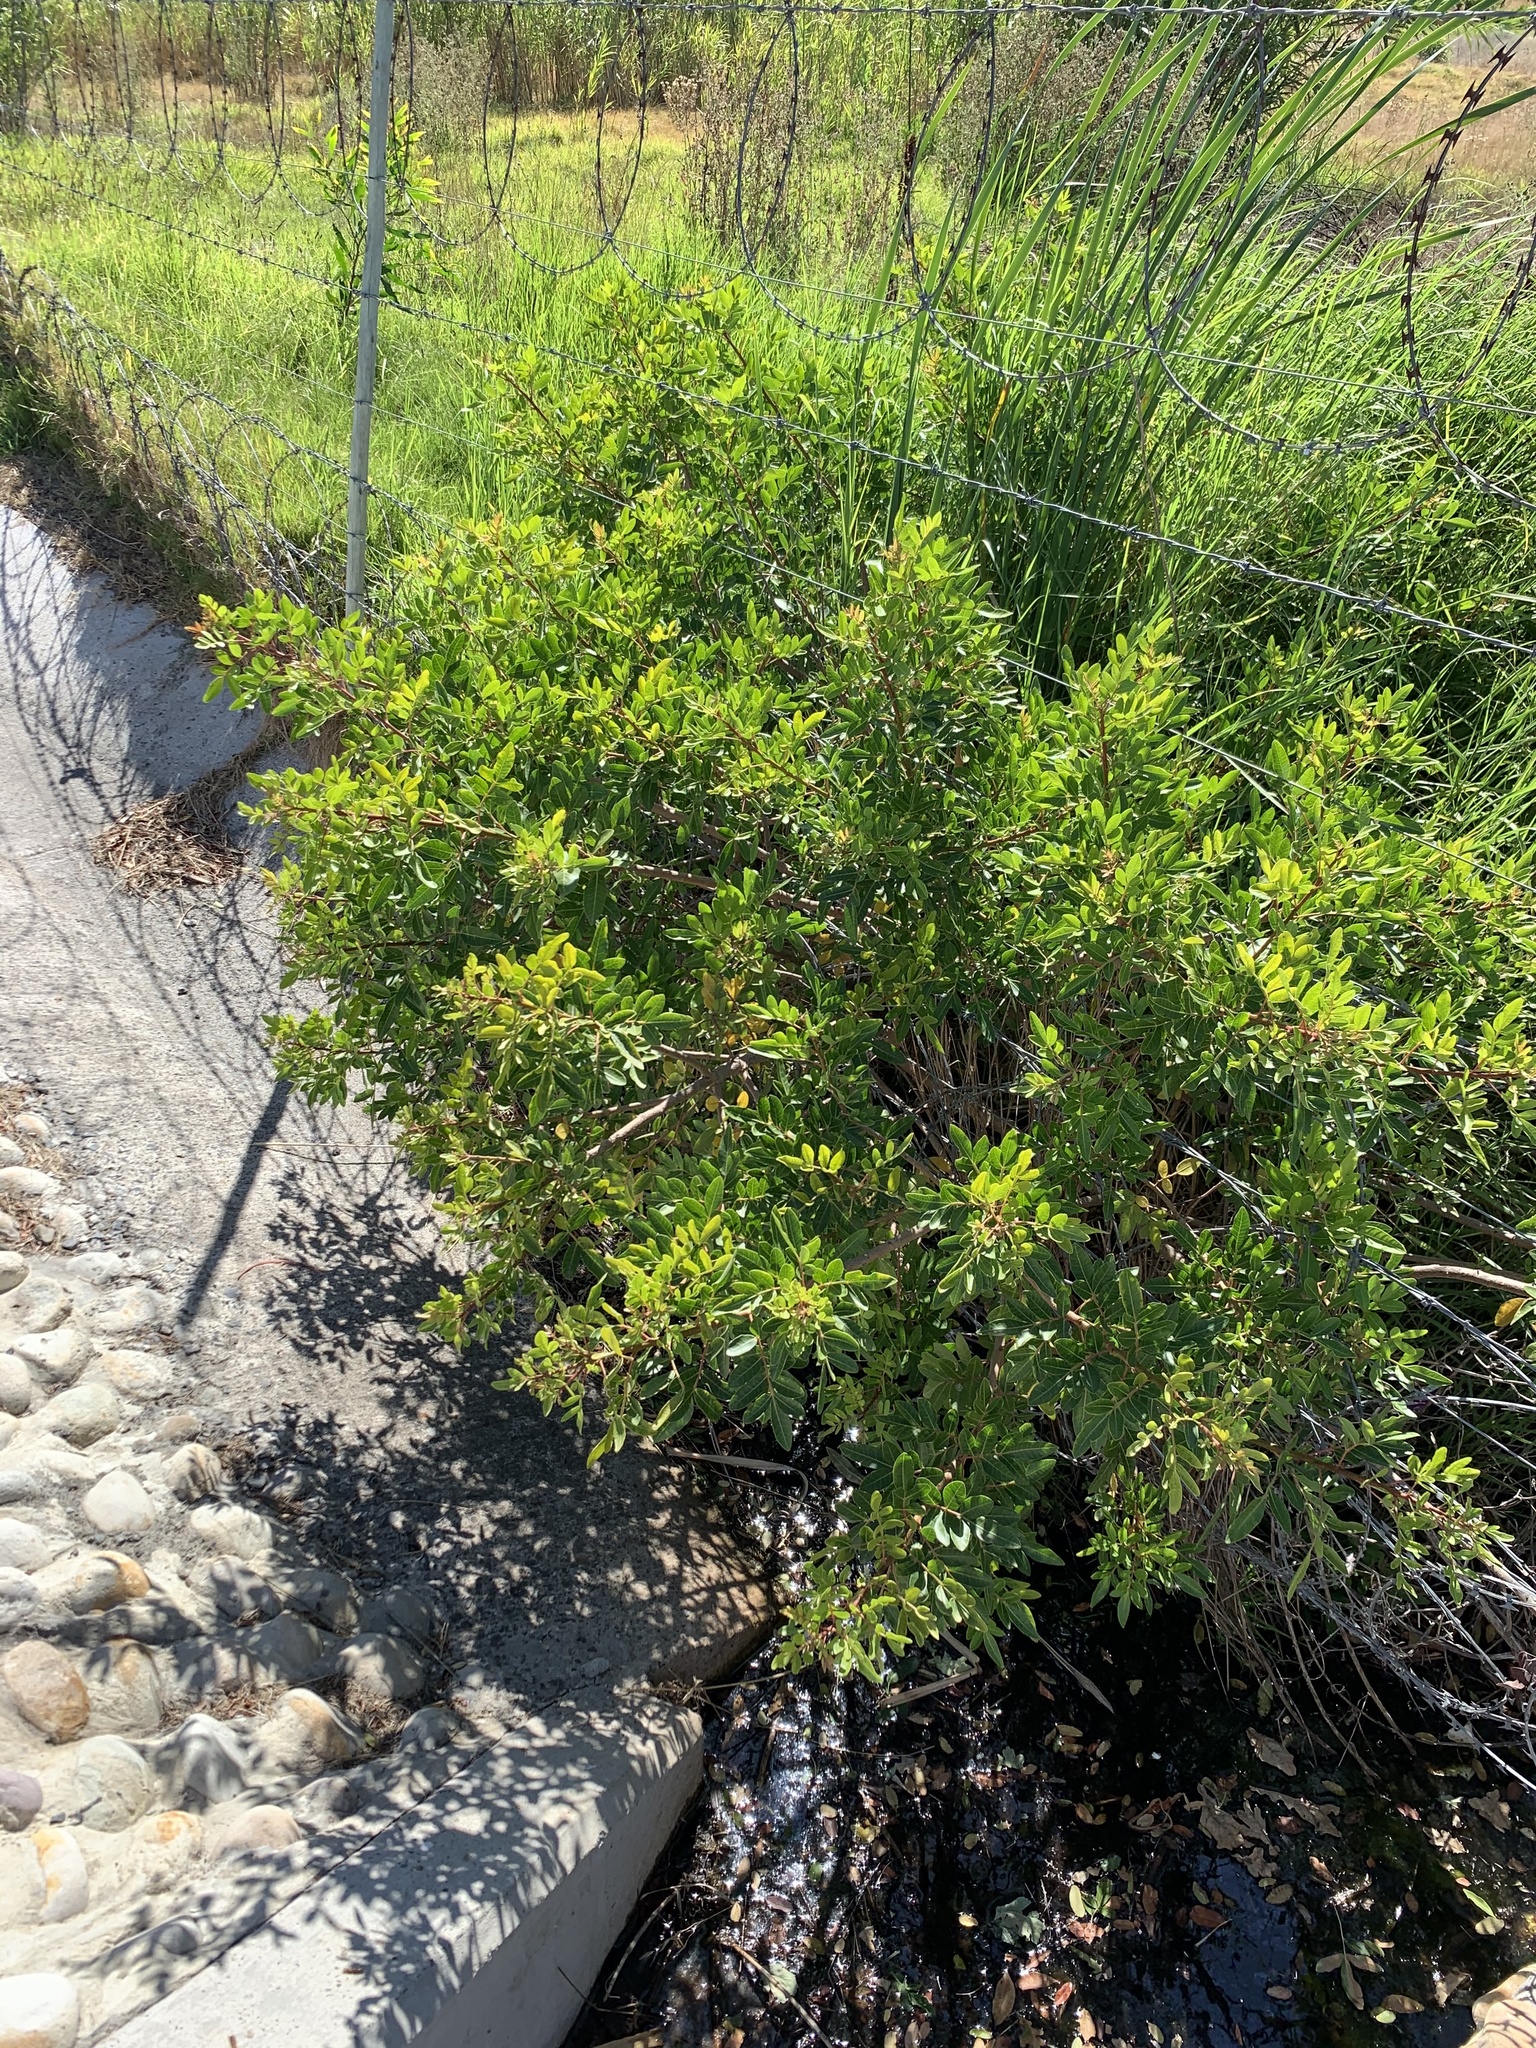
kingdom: Plantae
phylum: Tracheophyta
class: Magnoliopsida
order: Sapindales
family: Anacardiaceae
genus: Schinus
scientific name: Schinus terebinthifolia
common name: Brazilian peppertree
